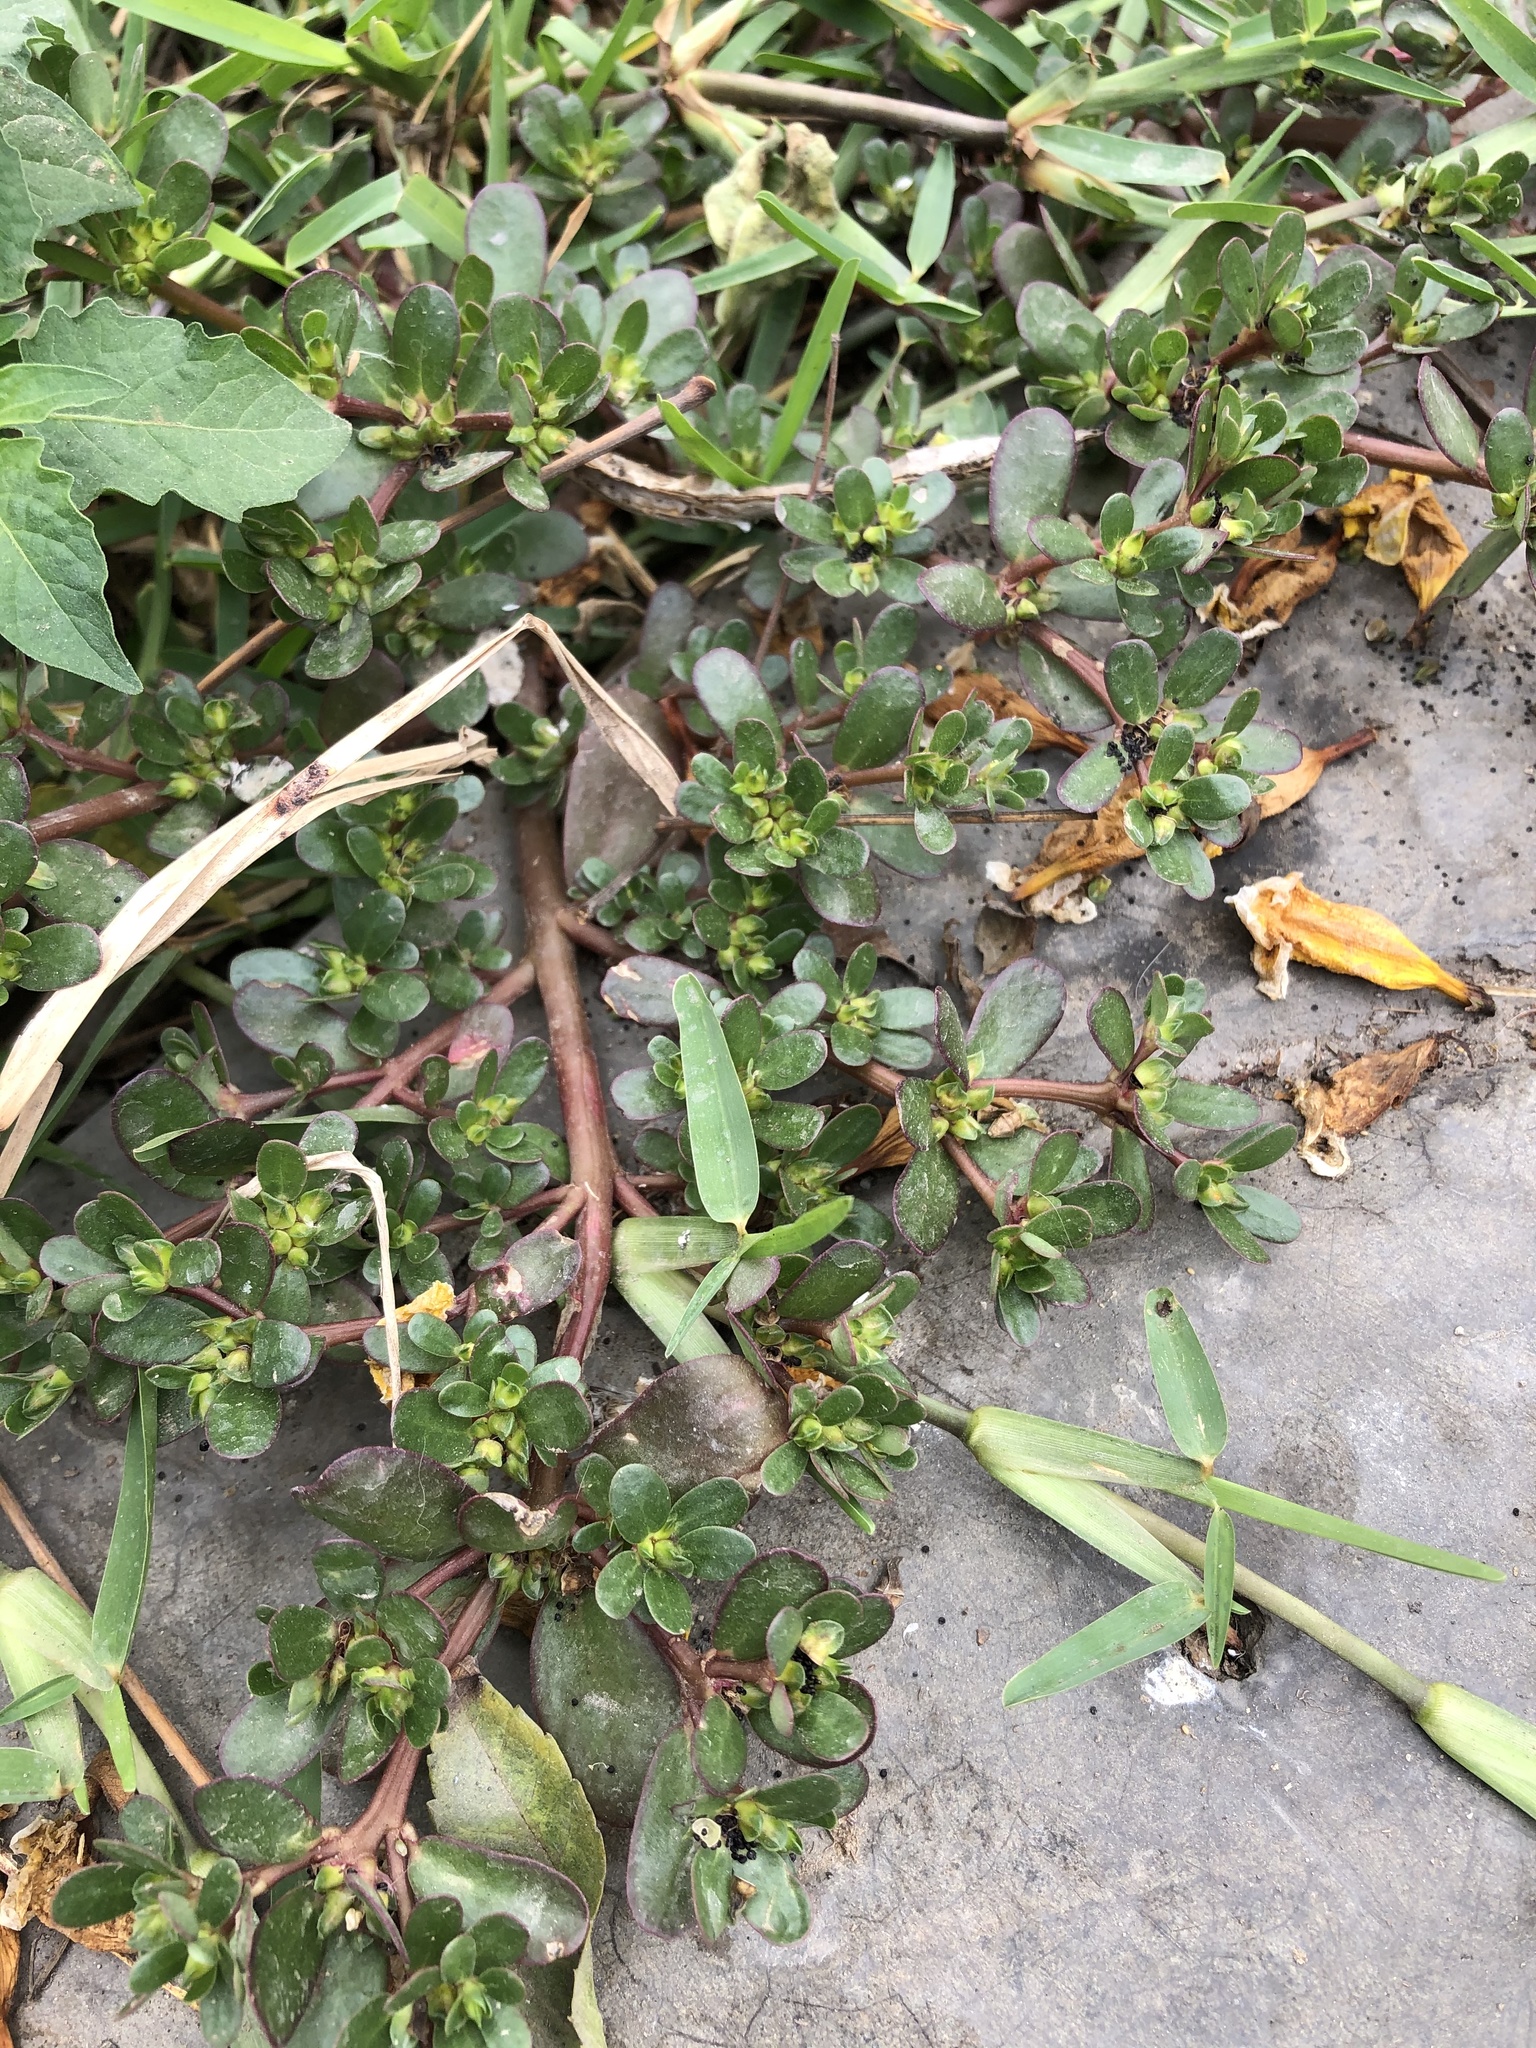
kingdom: Plantae
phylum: Tracheophyta
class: Magnoliopsida
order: Caryophyllales
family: Portulacaceae
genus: Portulaca
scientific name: Portulaca oleracea
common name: Common purslane
